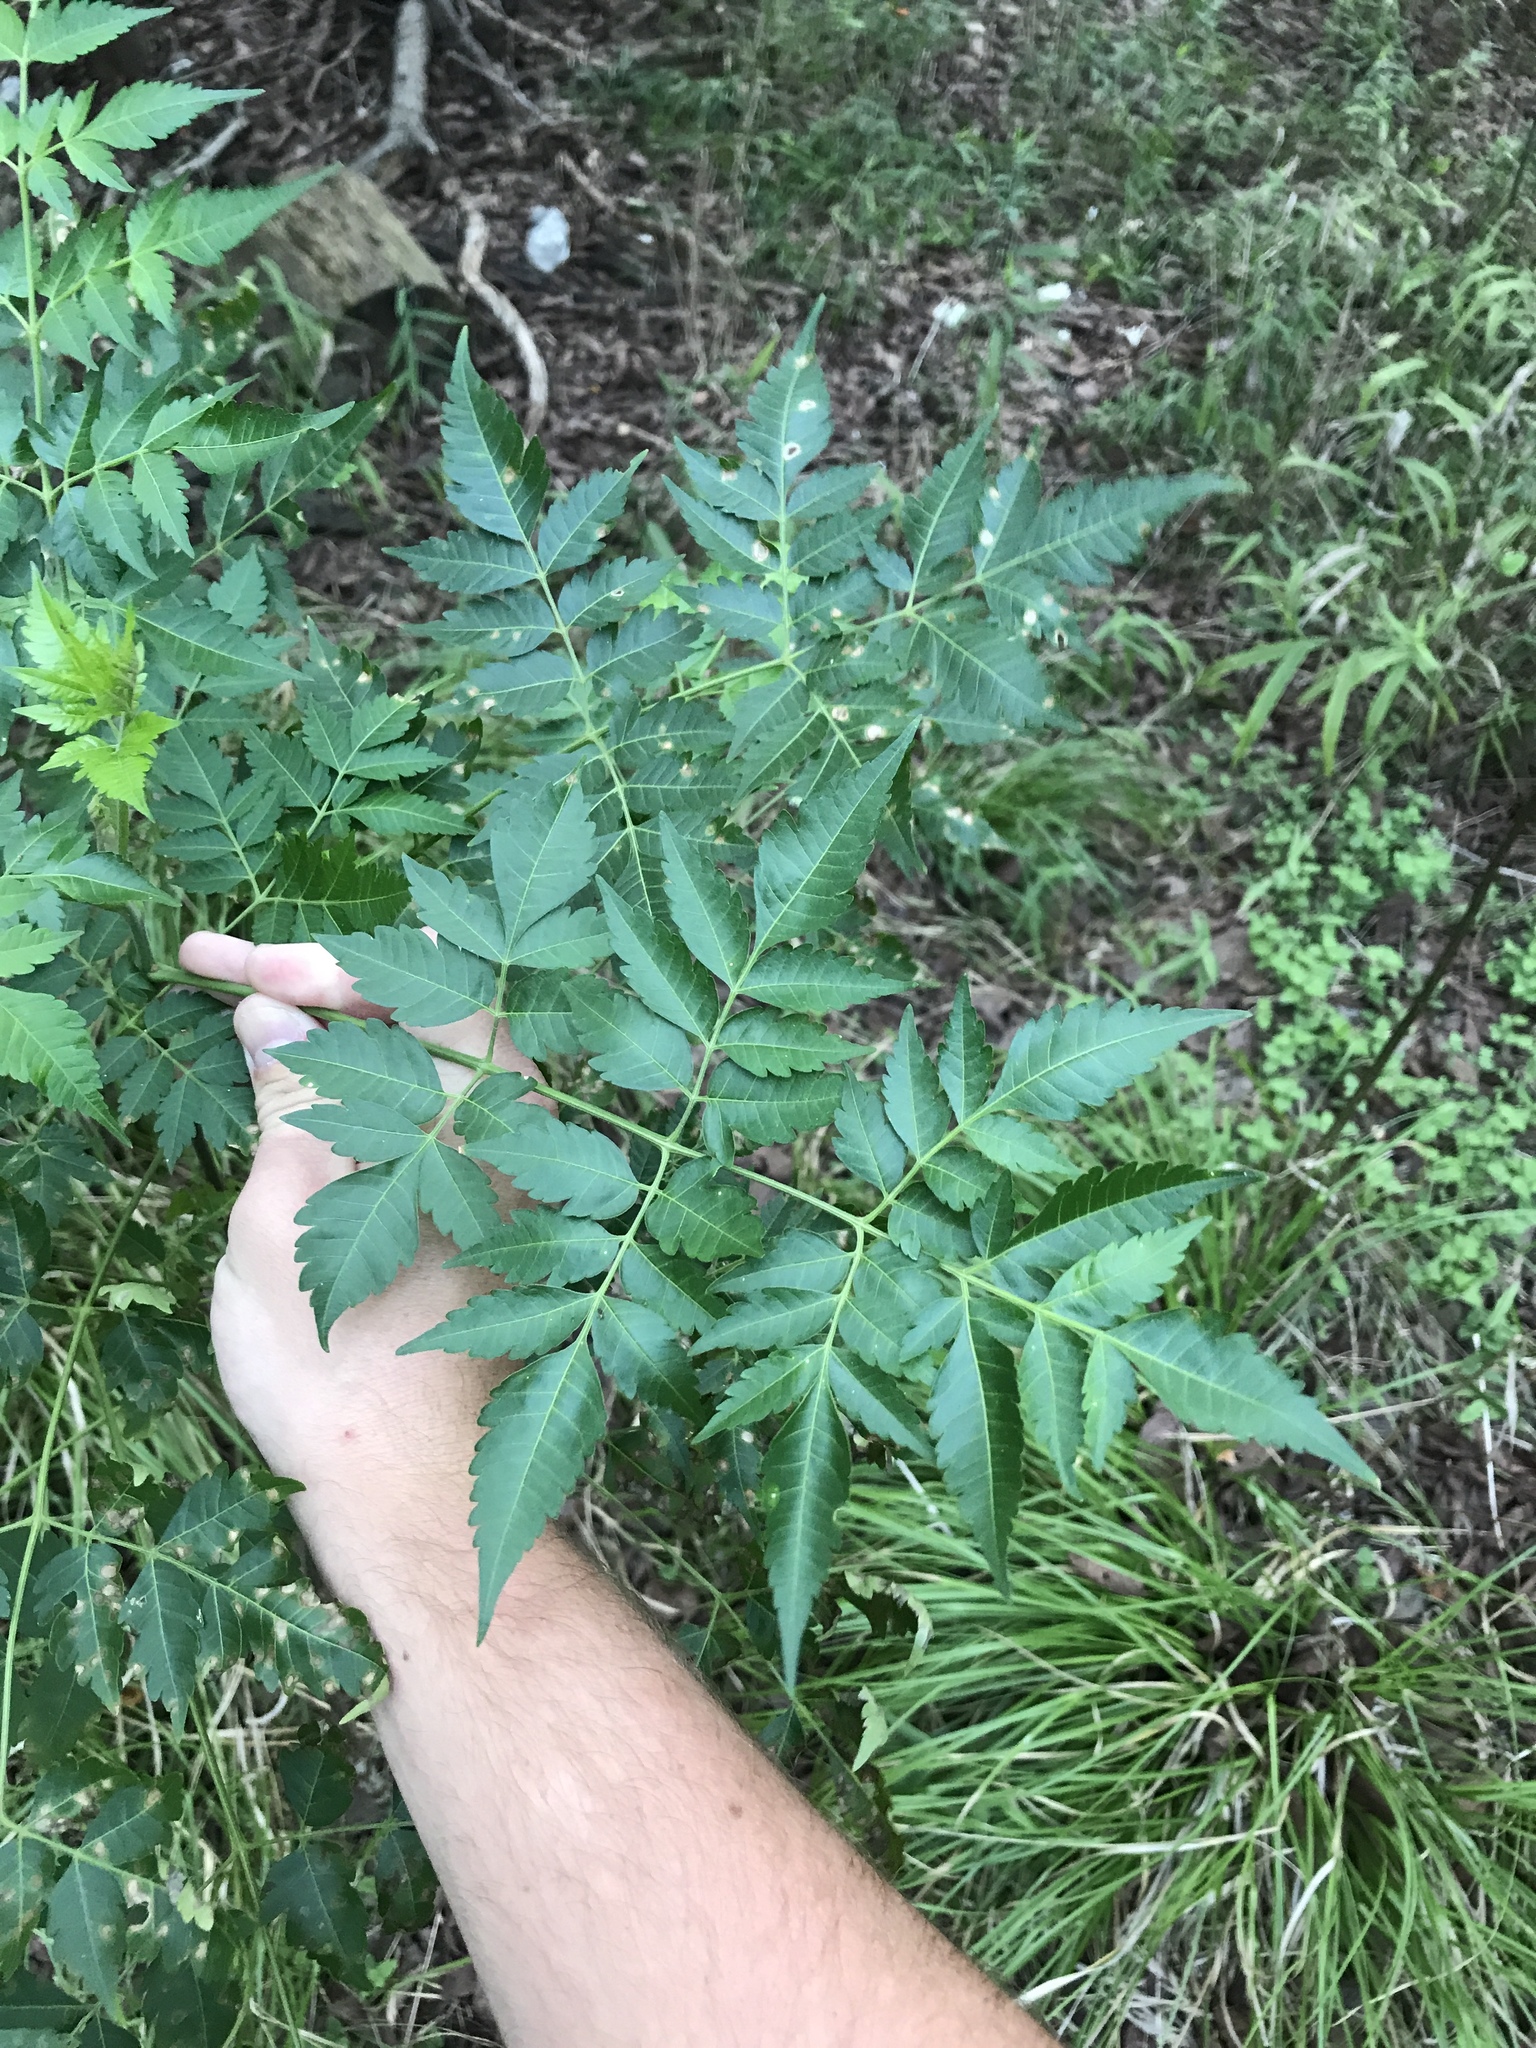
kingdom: Plantae
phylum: Tracheophyta
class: Magnoliopsida
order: Sapindales
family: Meliaceae
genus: Melia
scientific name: Melia azedarach
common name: Chinaberrytree
